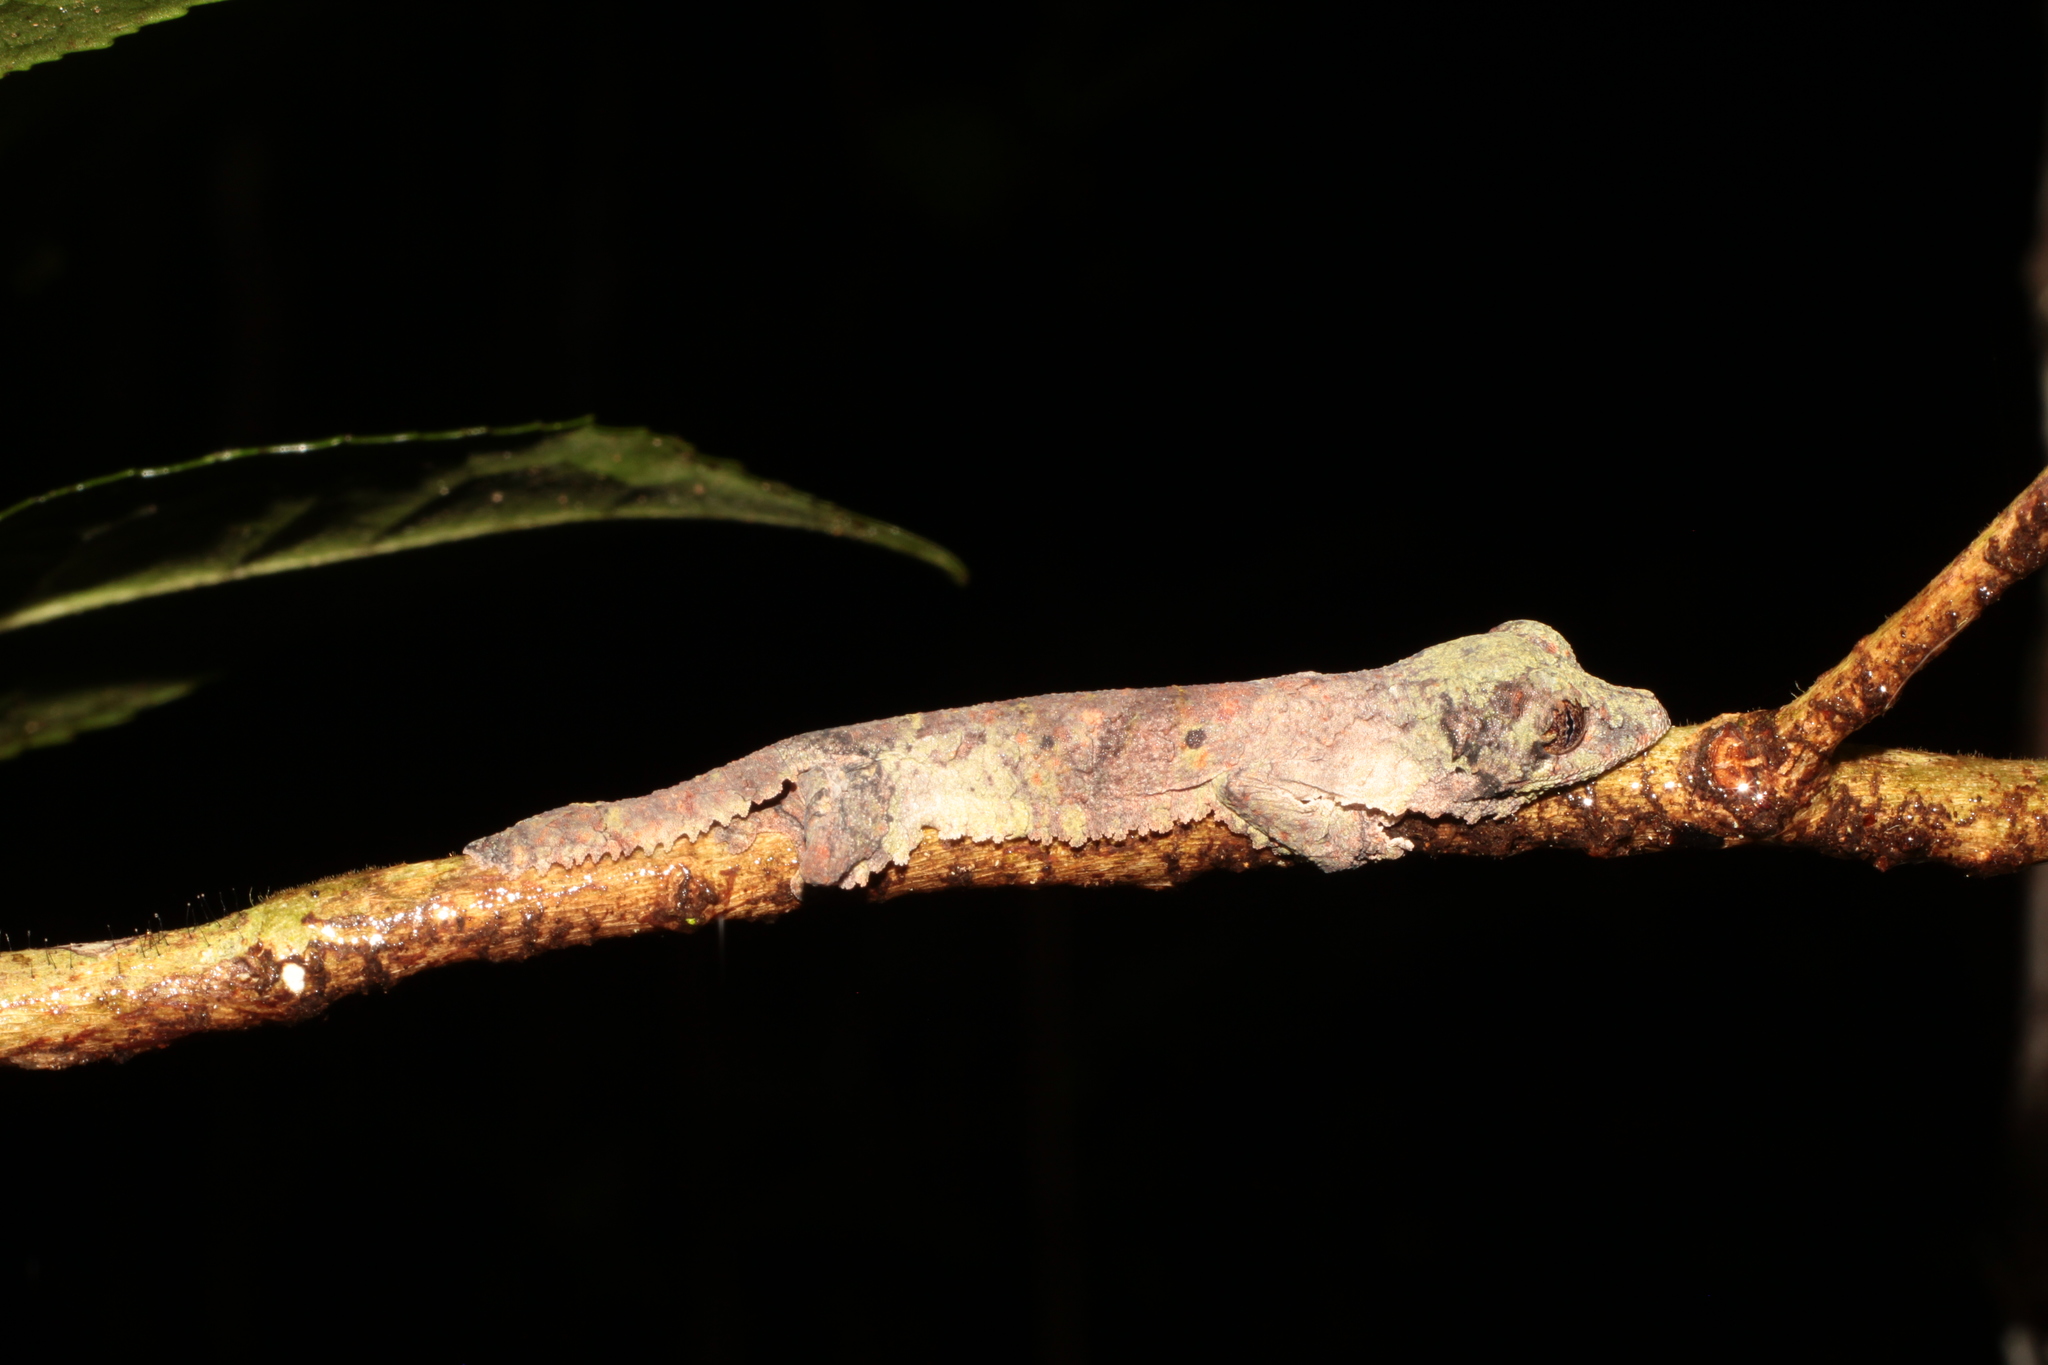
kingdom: Animalia
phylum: Chordata
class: Squamata
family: Gekkonidae
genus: Uroplatus
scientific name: Uroplatus sikorae
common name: Southern flat-tail gecko
